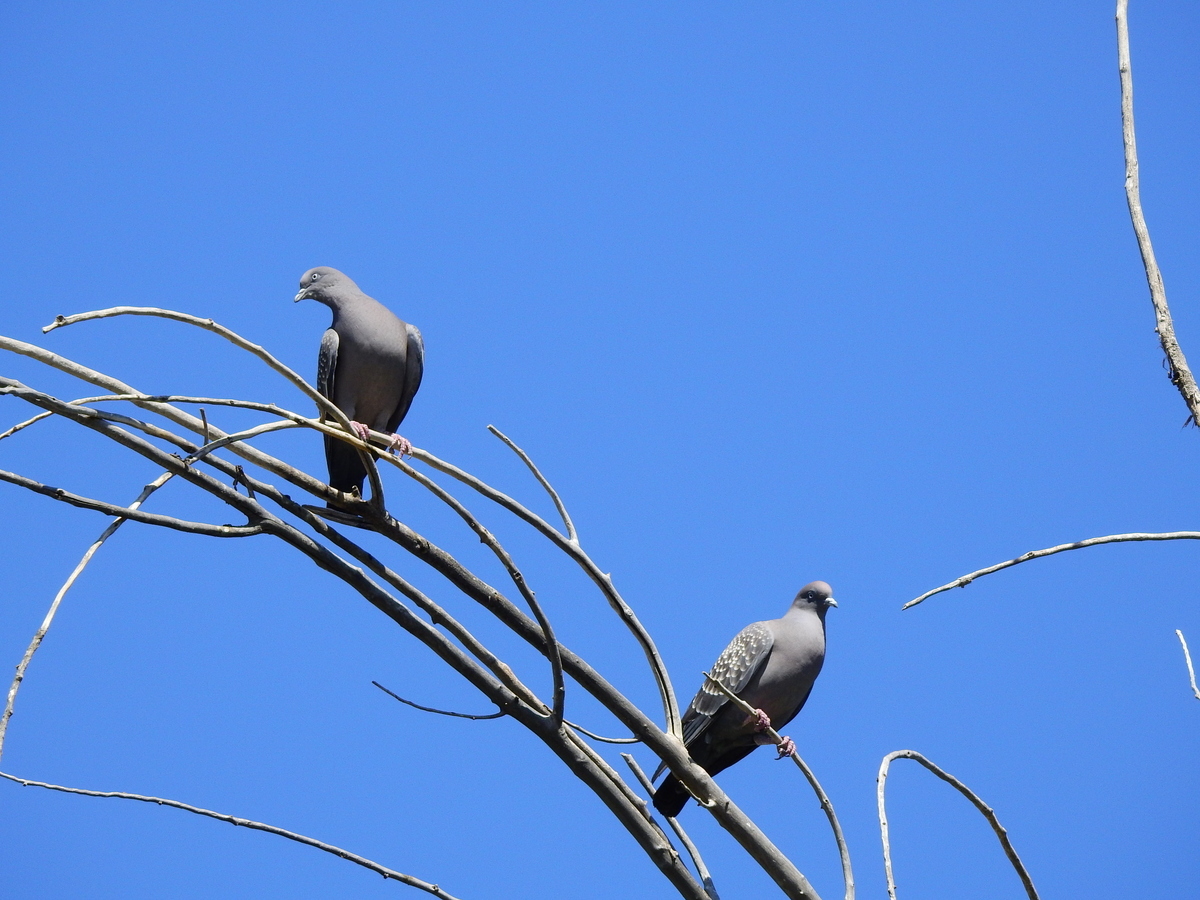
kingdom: Animalia
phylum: Chordata
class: Aves
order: Columbiformes
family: Columbidae
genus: Patagioenas
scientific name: Patagioenas maculosa
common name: Spot-winged pigeon
